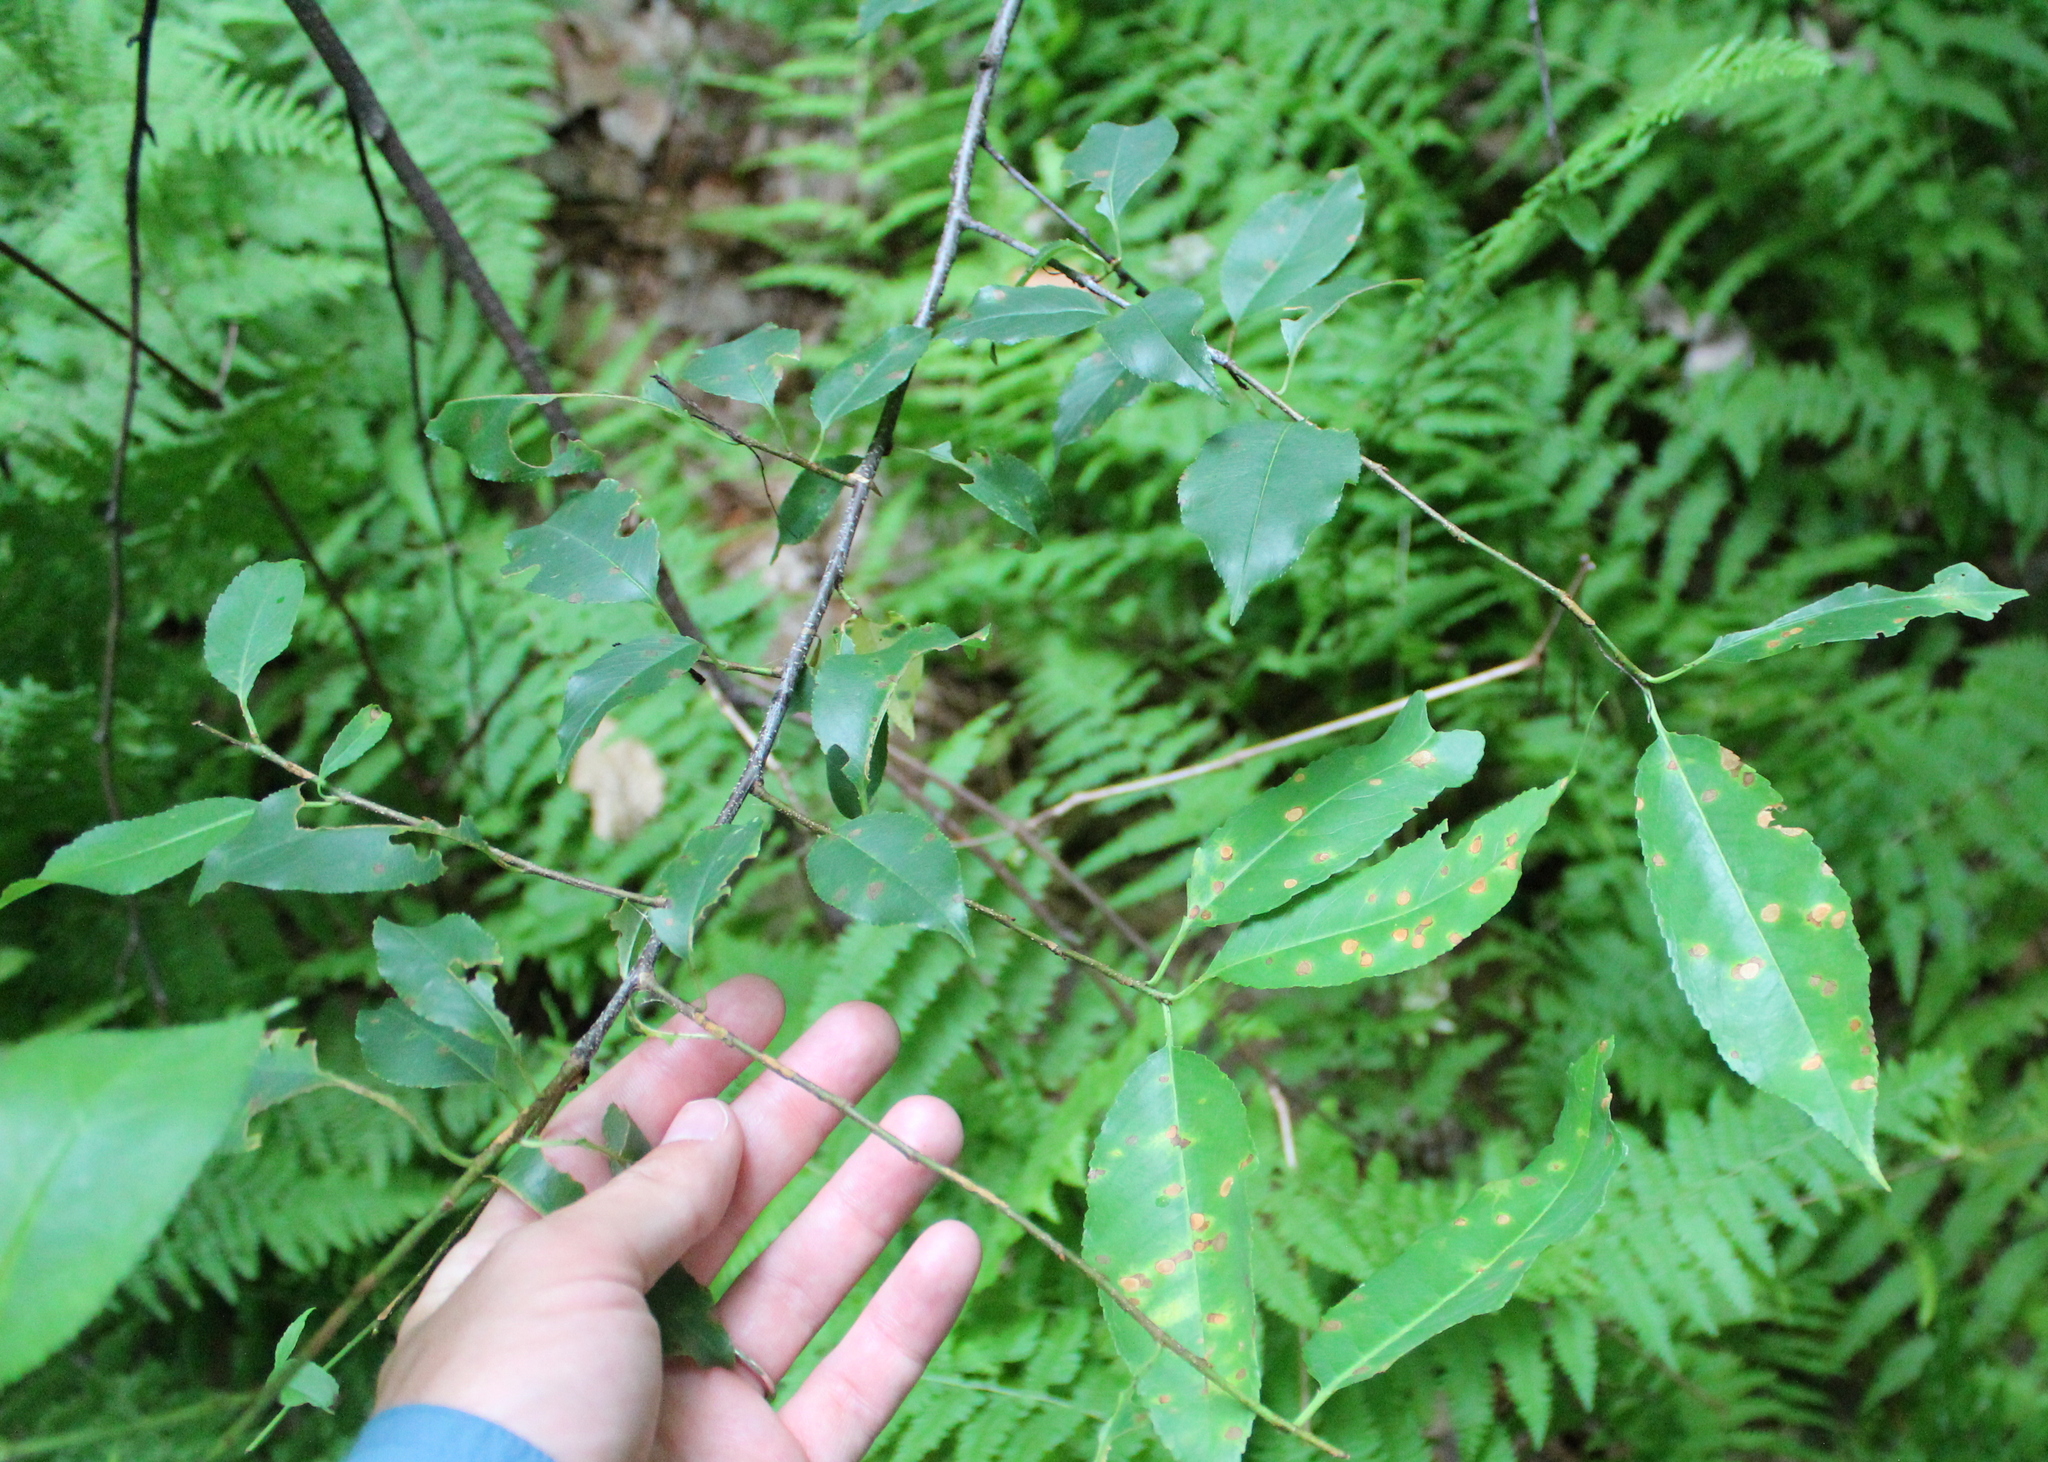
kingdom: Plantae
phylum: Tracheophyta
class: Magnoliopsida
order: Rosales
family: Rosaceae
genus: Prunus
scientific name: Prunus serotina
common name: Black cherry
